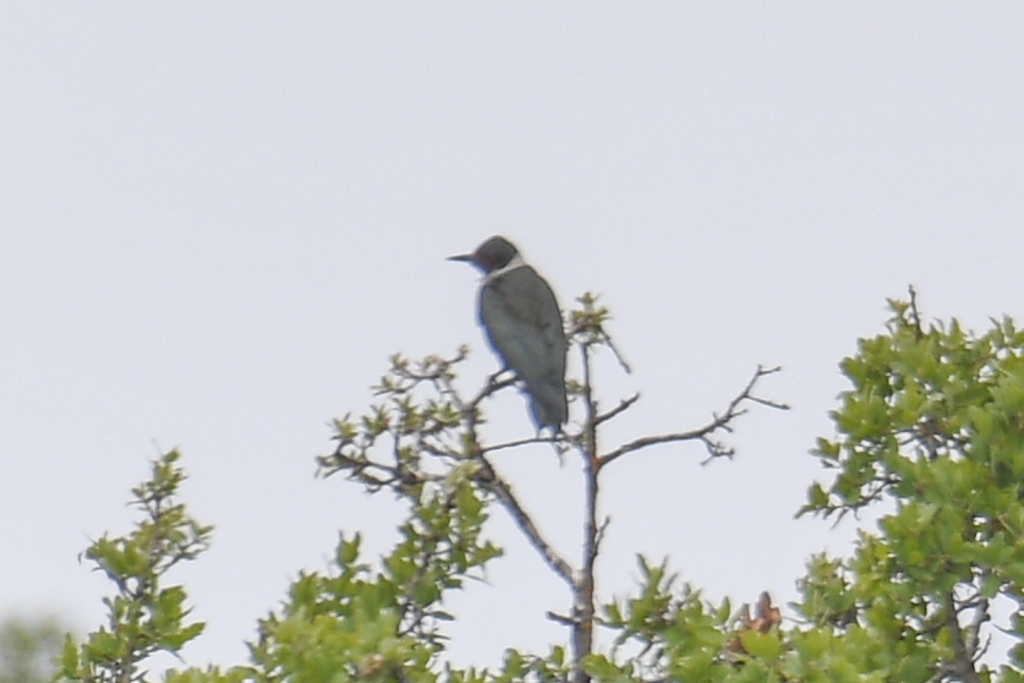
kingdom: Animalia
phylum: Chordata
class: Aves
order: Piciformes
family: Picidae
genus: Melanerpes
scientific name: Melanerpes lewis
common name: Lewis's woodpecker
